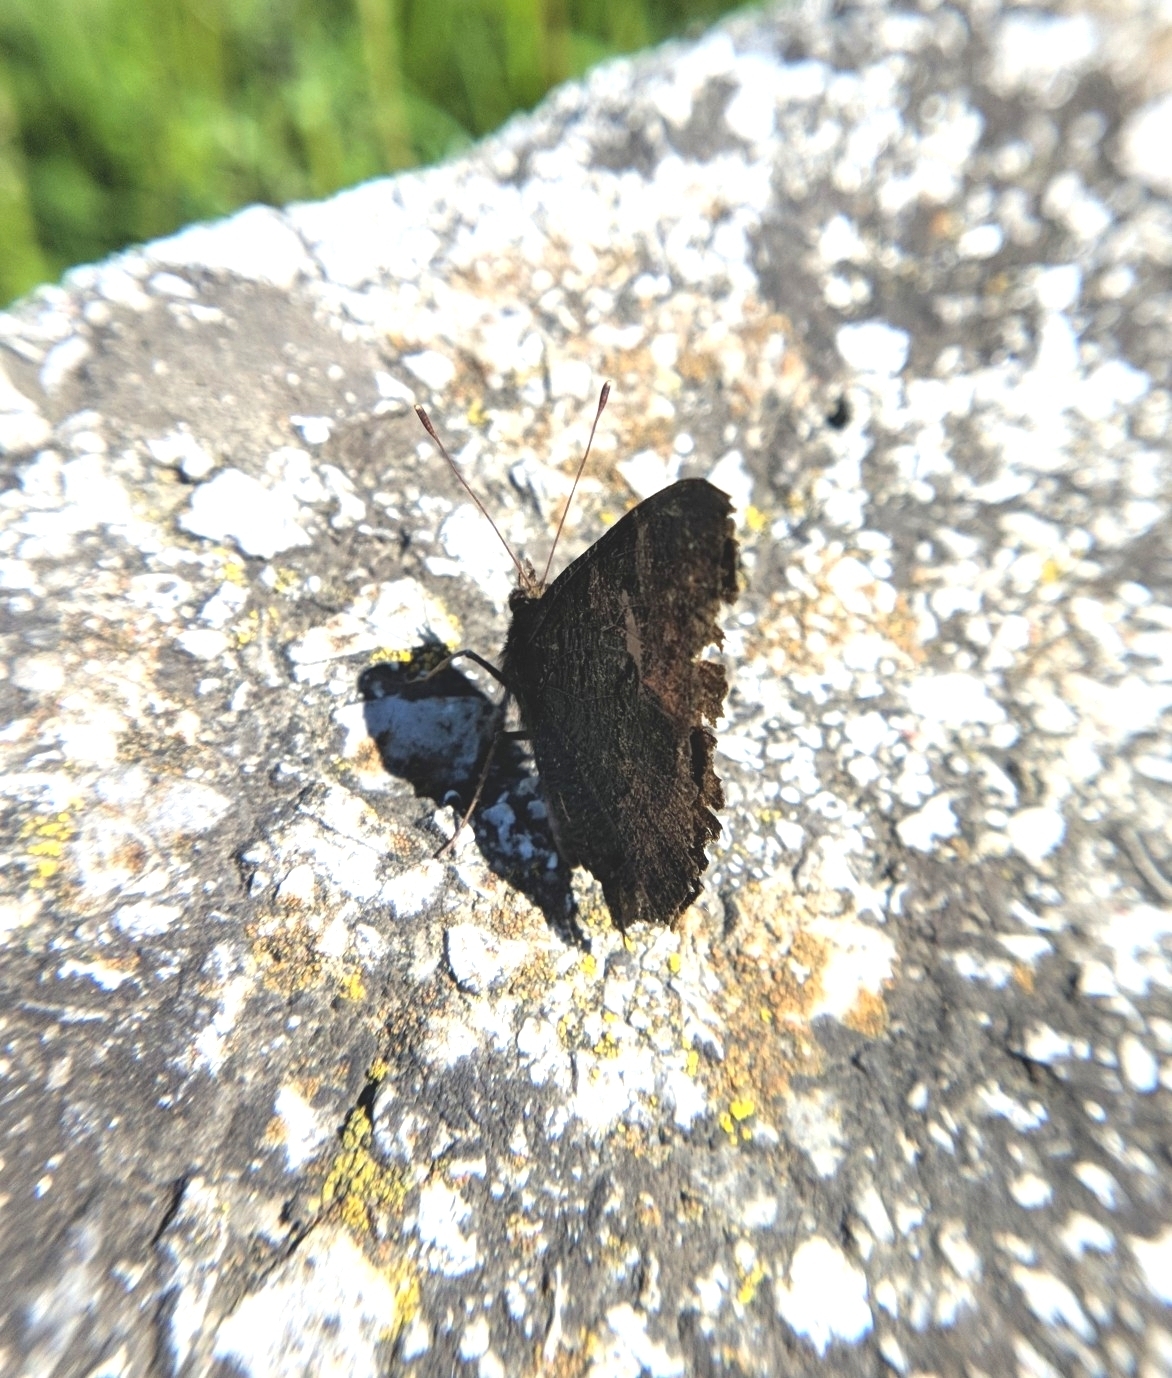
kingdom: Animalia
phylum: Arthropoda
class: Insecta
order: Lepidoptera
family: Nymphalidae
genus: Aglais
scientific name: Aglais io
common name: Peacock
